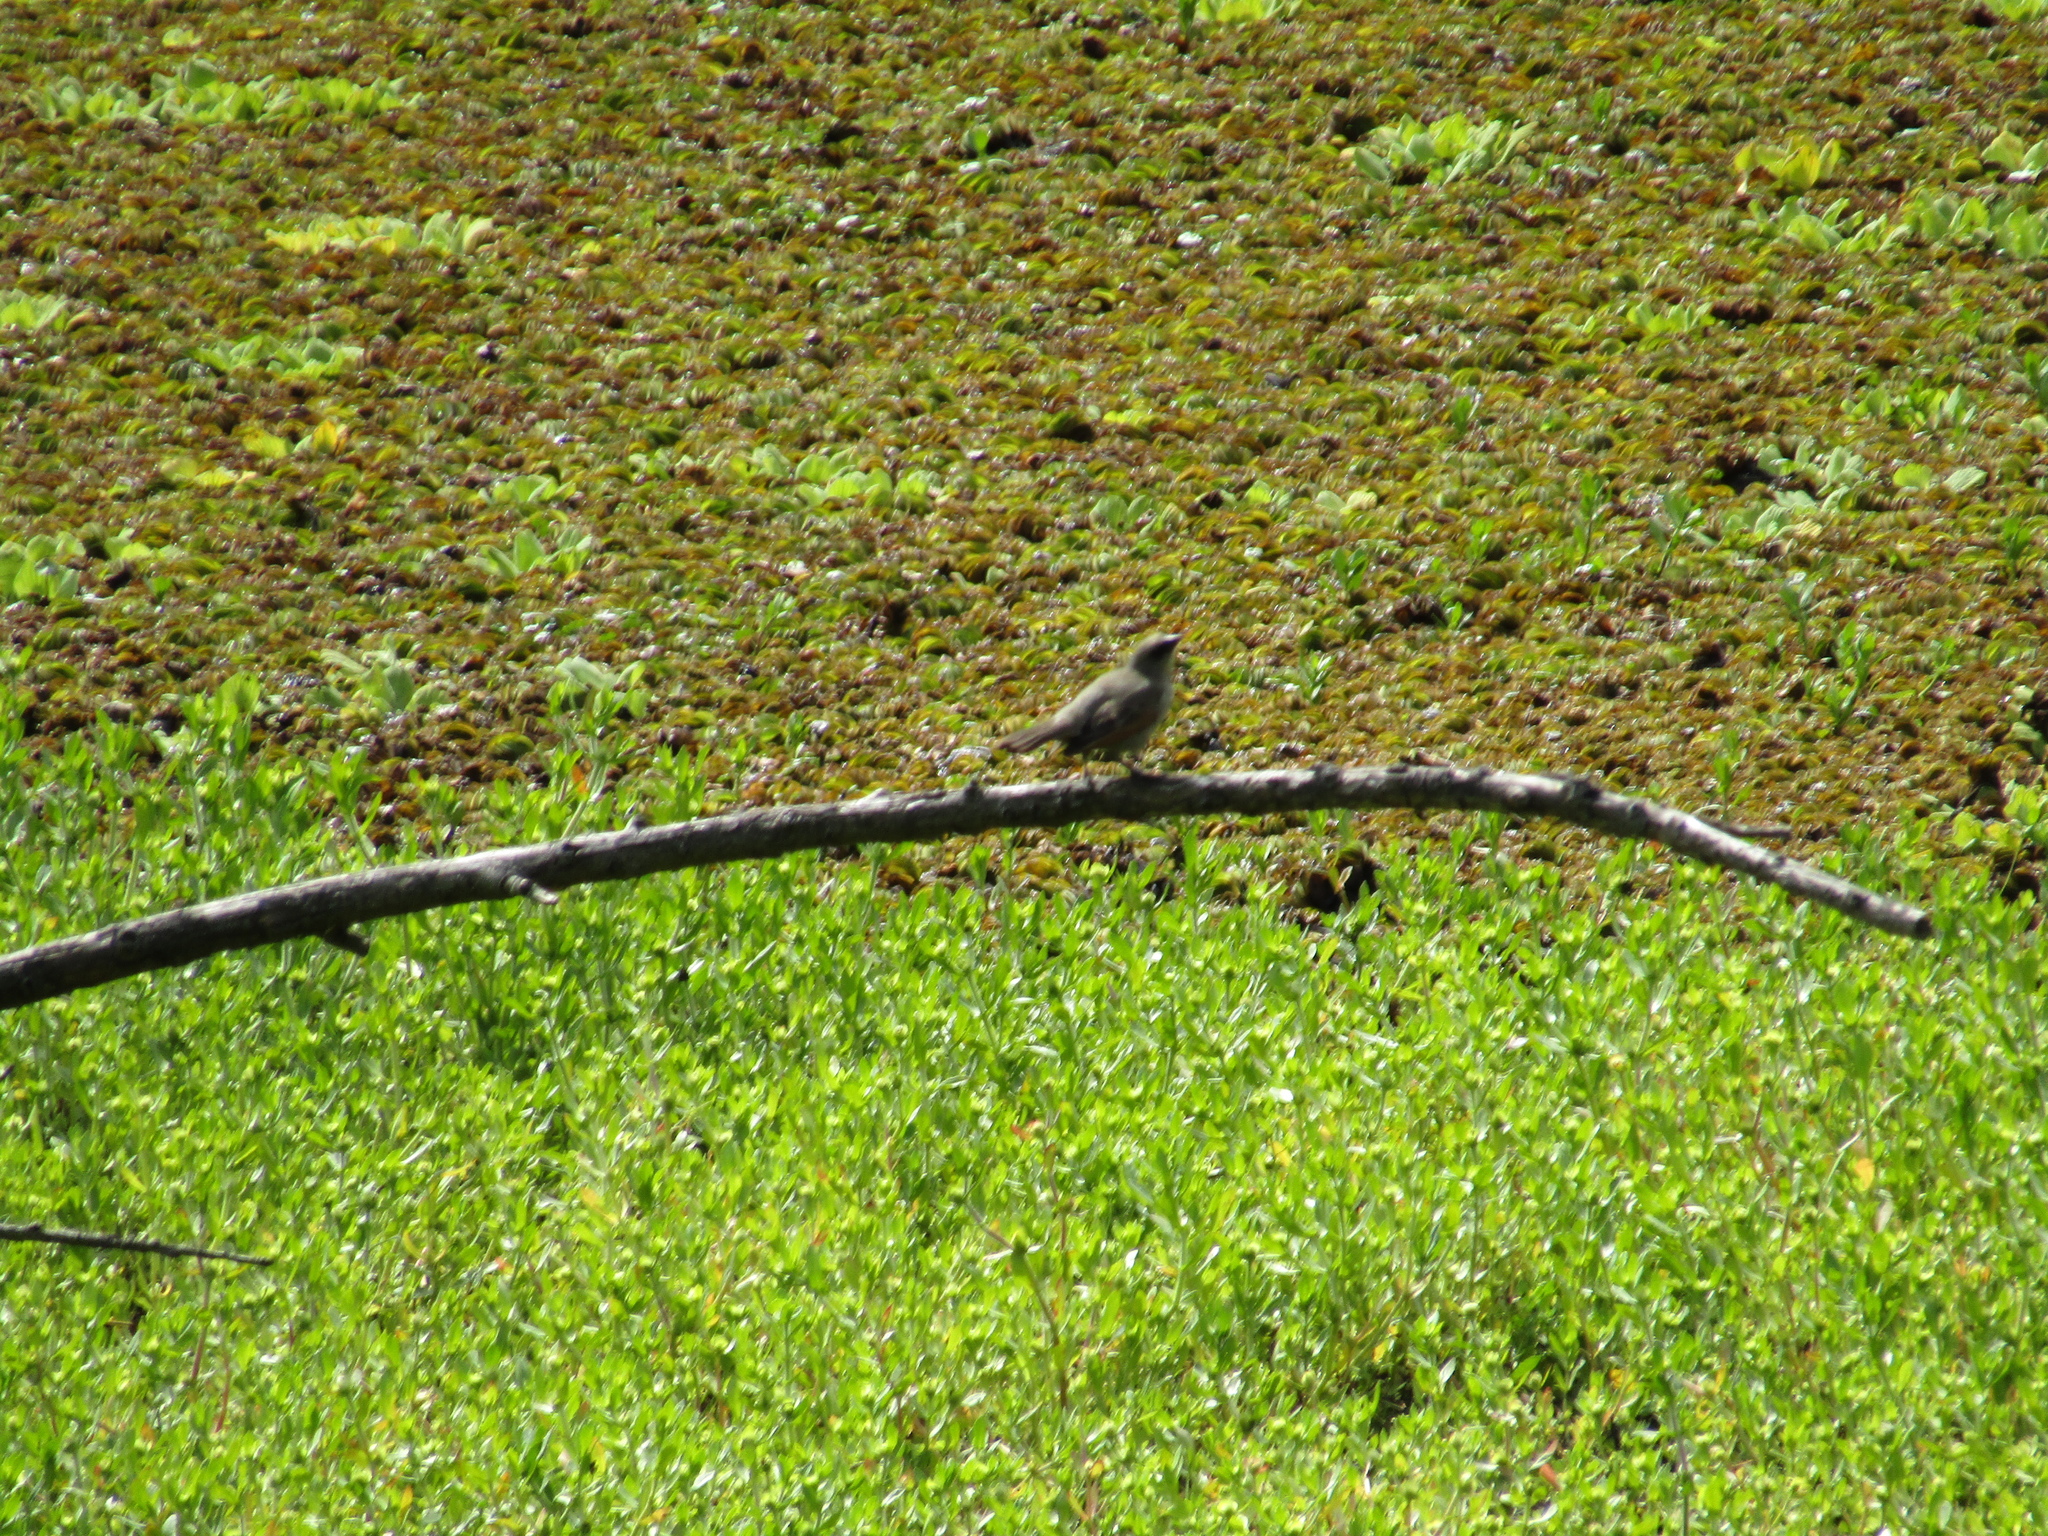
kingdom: Animalia
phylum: Chordata
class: Aves
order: Passeriformes
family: Icteridae
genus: Agelaioides
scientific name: Agelaioides badius
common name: Baywing
